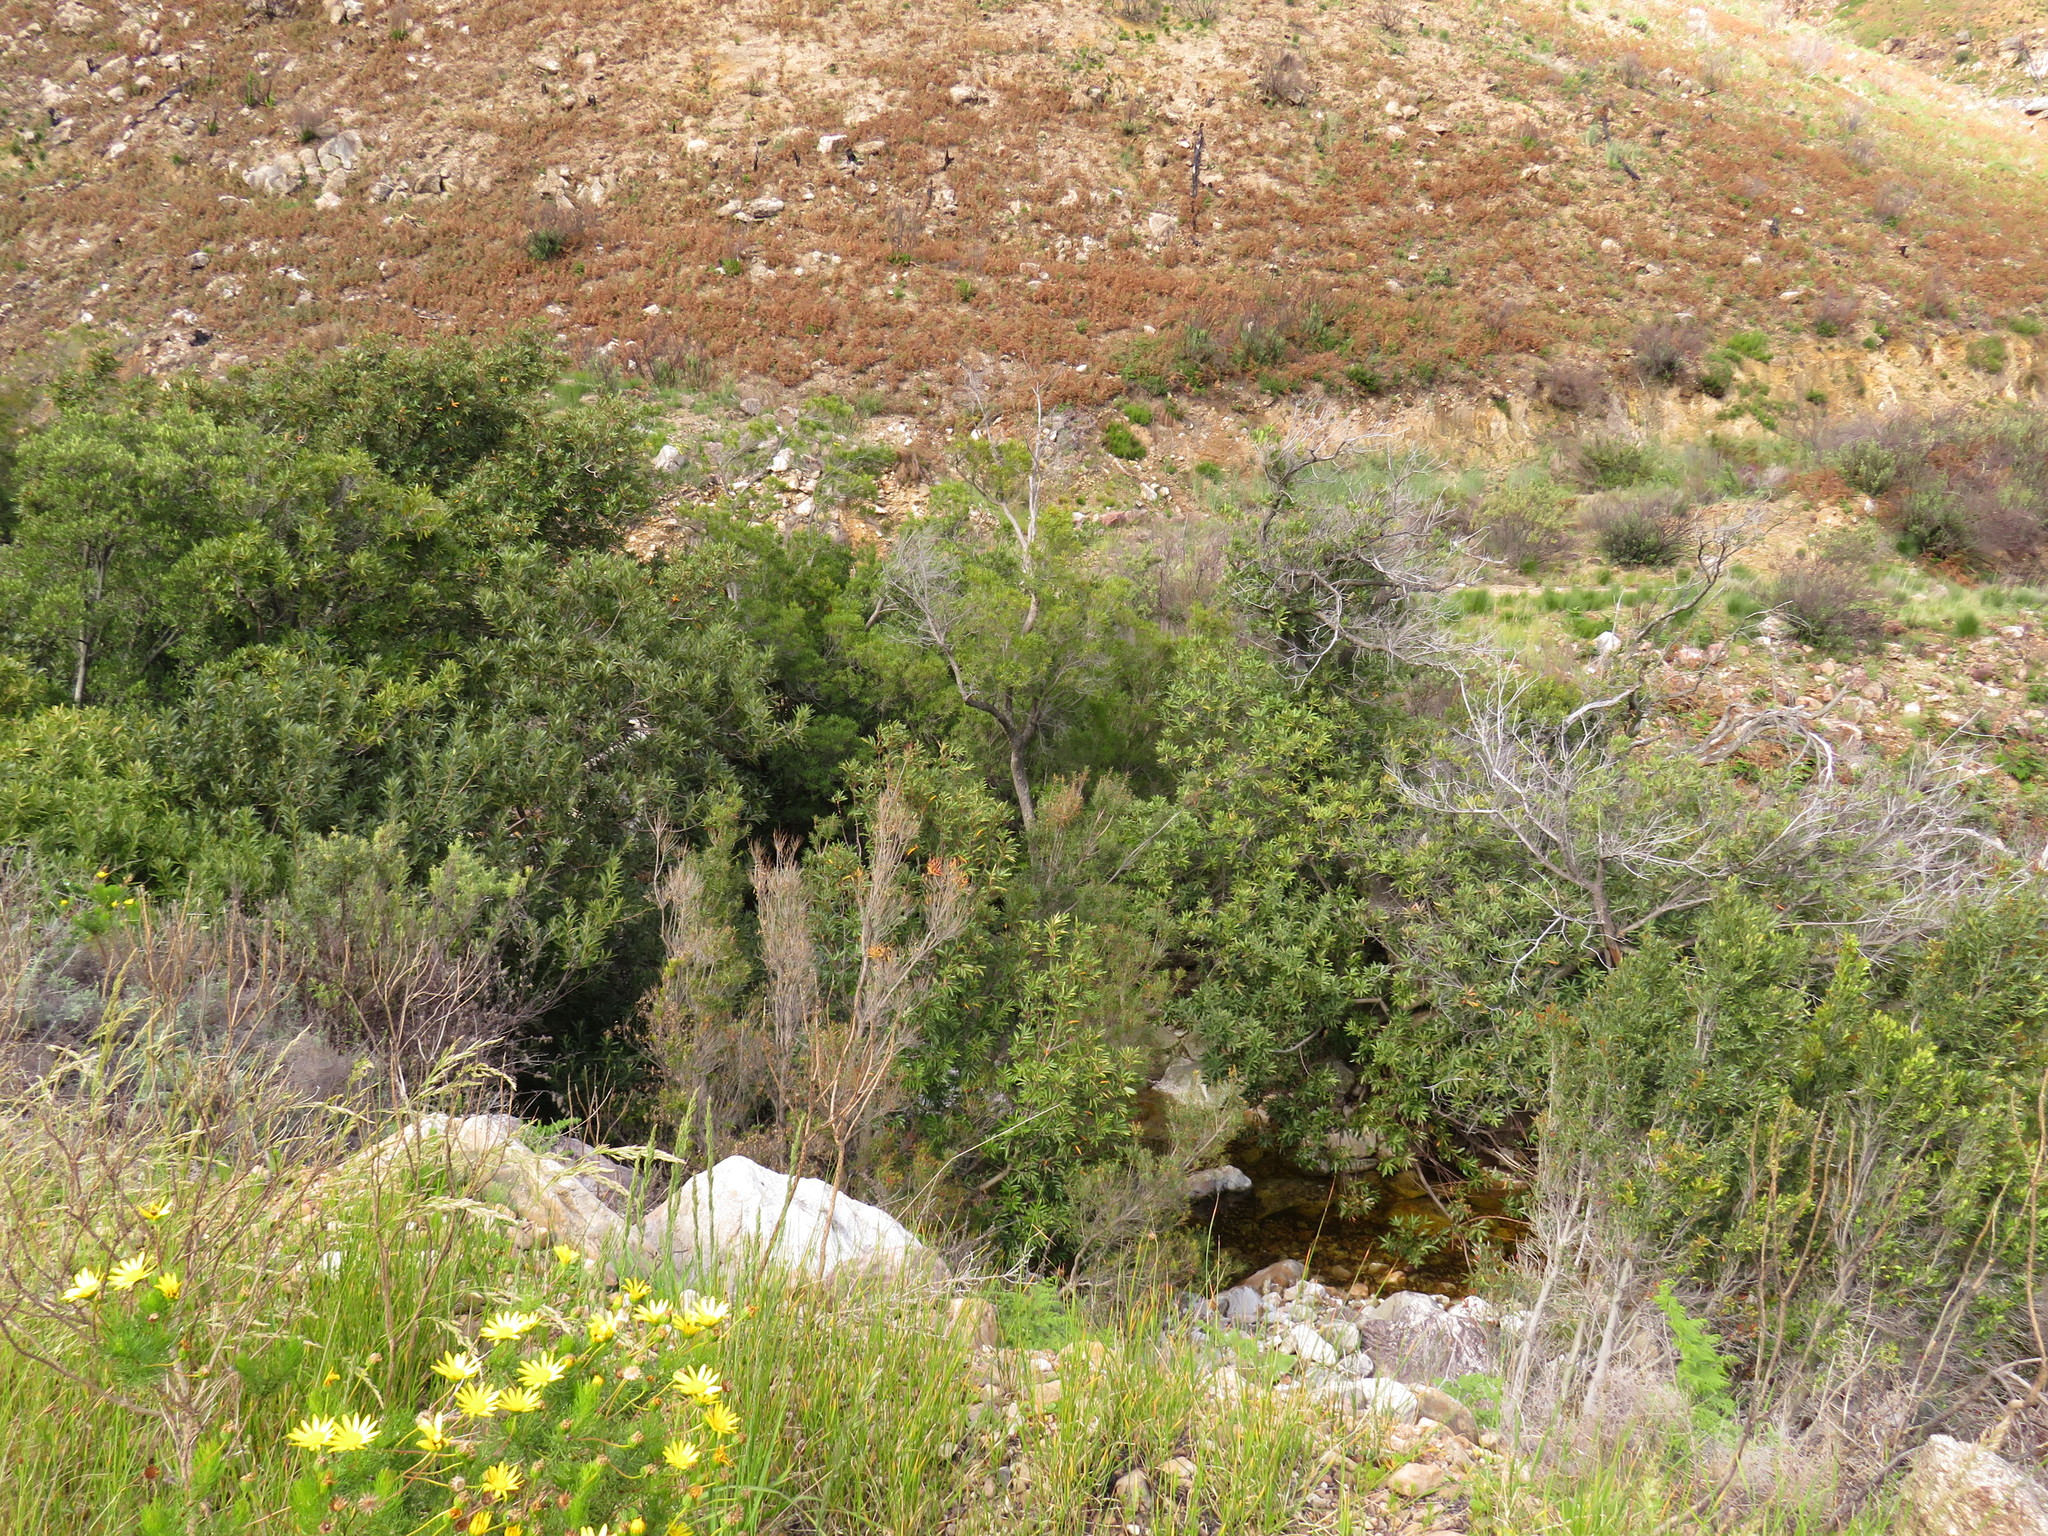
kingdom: Plantae
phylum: Tracheophyta
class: Magnoliopsida
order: Celastrales
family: Celastraceae
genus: Gymnosporia
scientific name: Gymnosporia laurina
